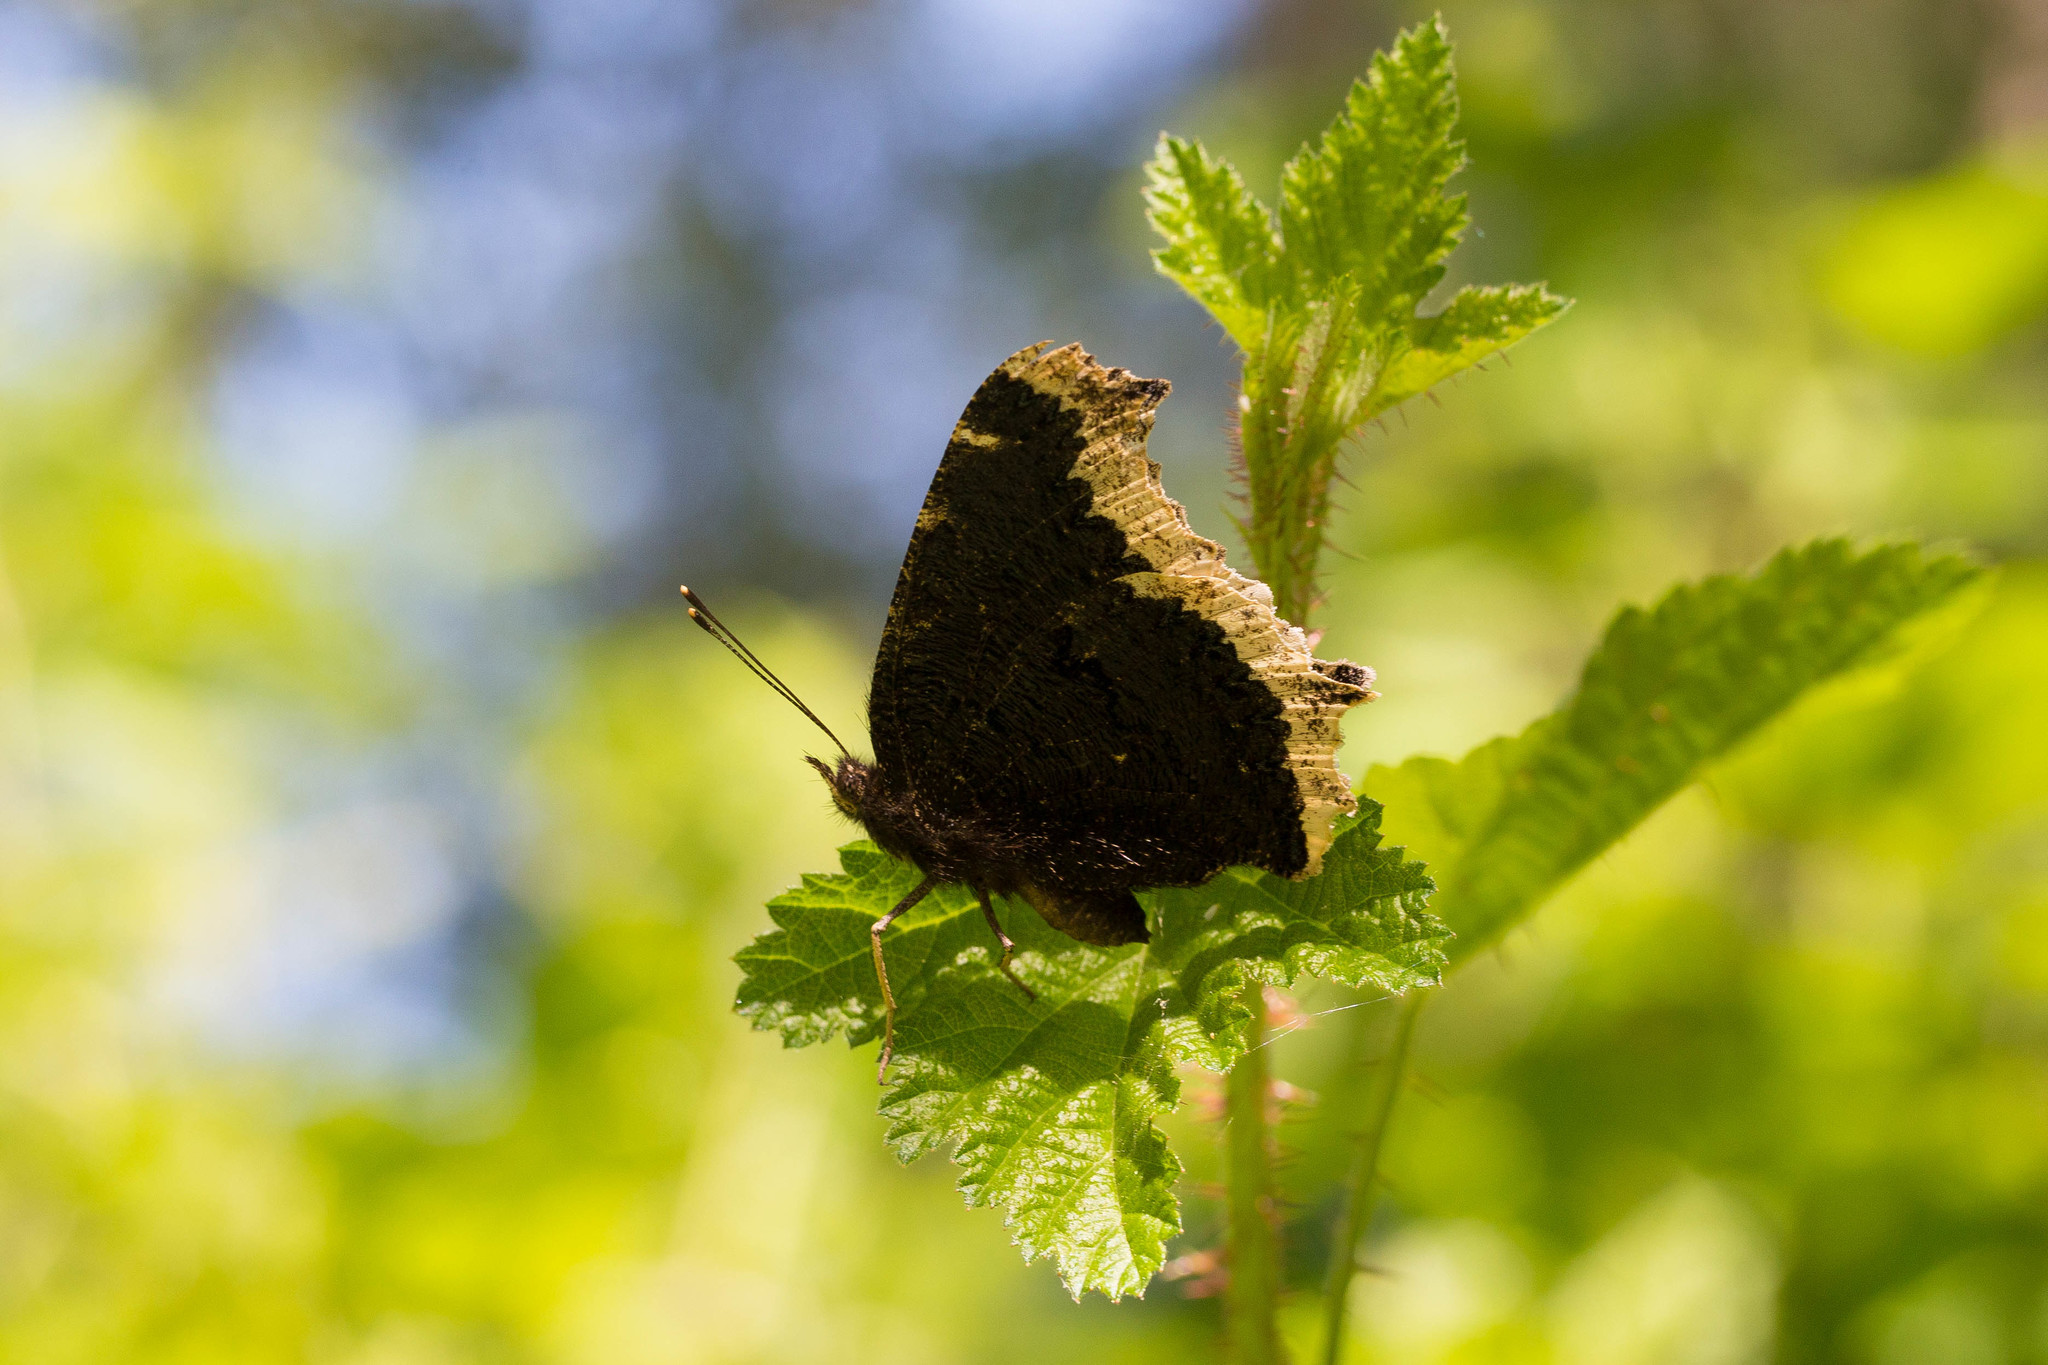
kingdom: Animalia
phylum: Arthropoda
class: Insecta
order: Lepidoptera
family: Nymphalidae
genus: Nymphalis
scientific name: Nymphalis antiopa
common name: Camberwell beauty
